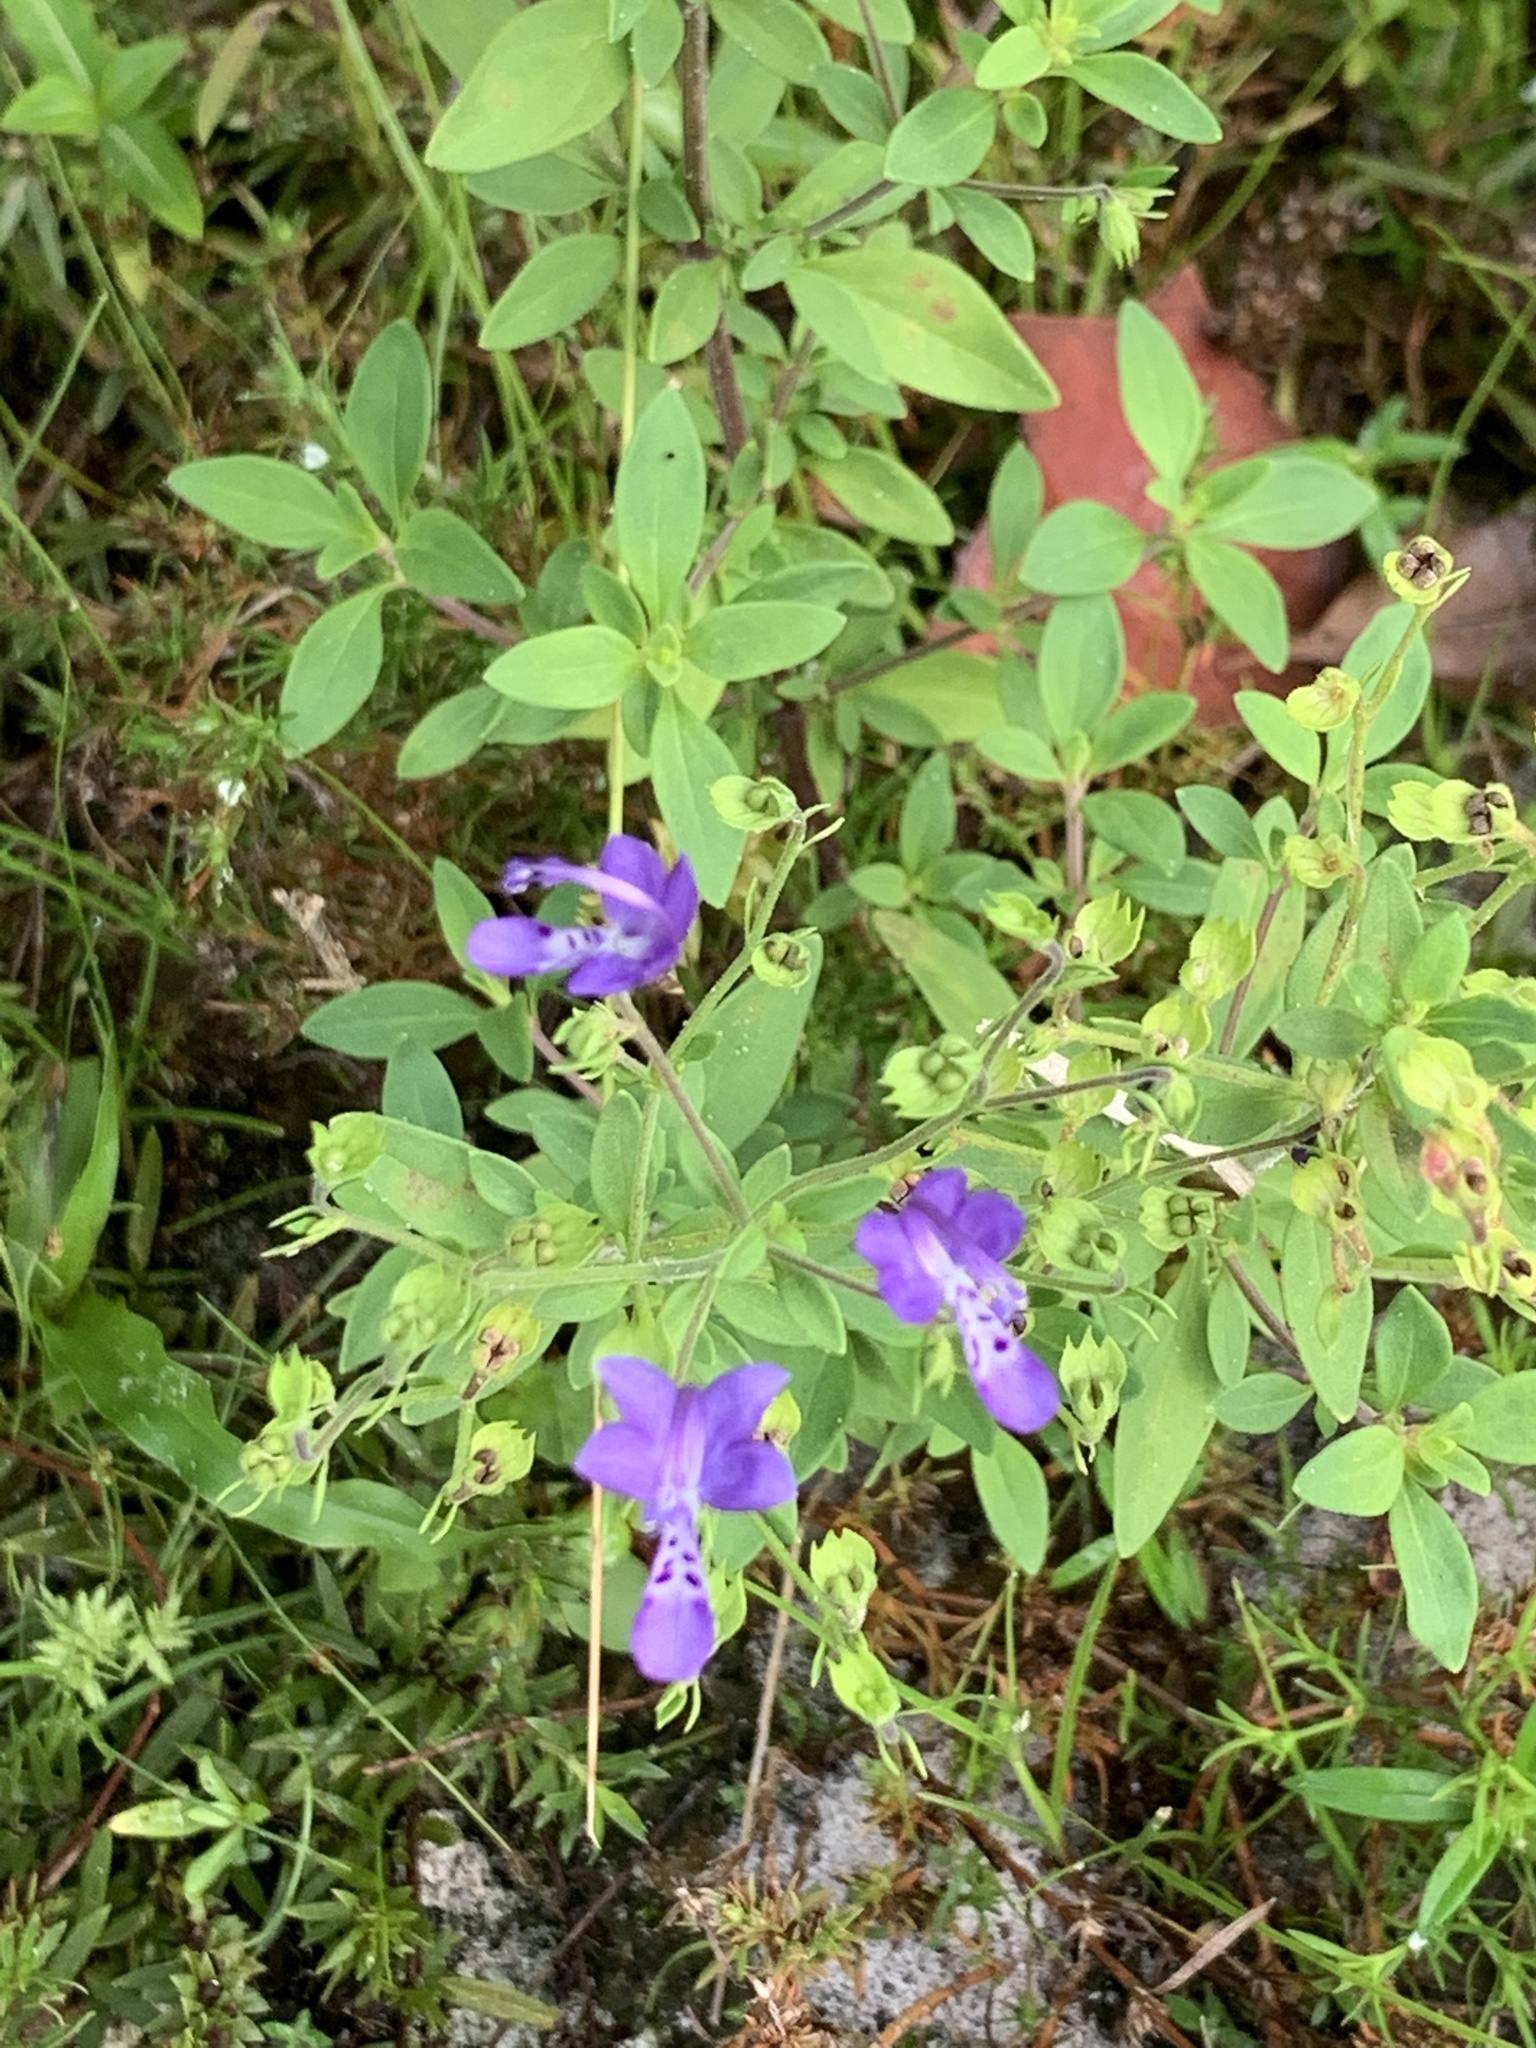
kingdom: Plantae
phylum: Tracheophyta
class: Magnoliopsida
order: Lamiales
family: Lamiaceae
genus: Trichostema
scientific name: Trichostema
